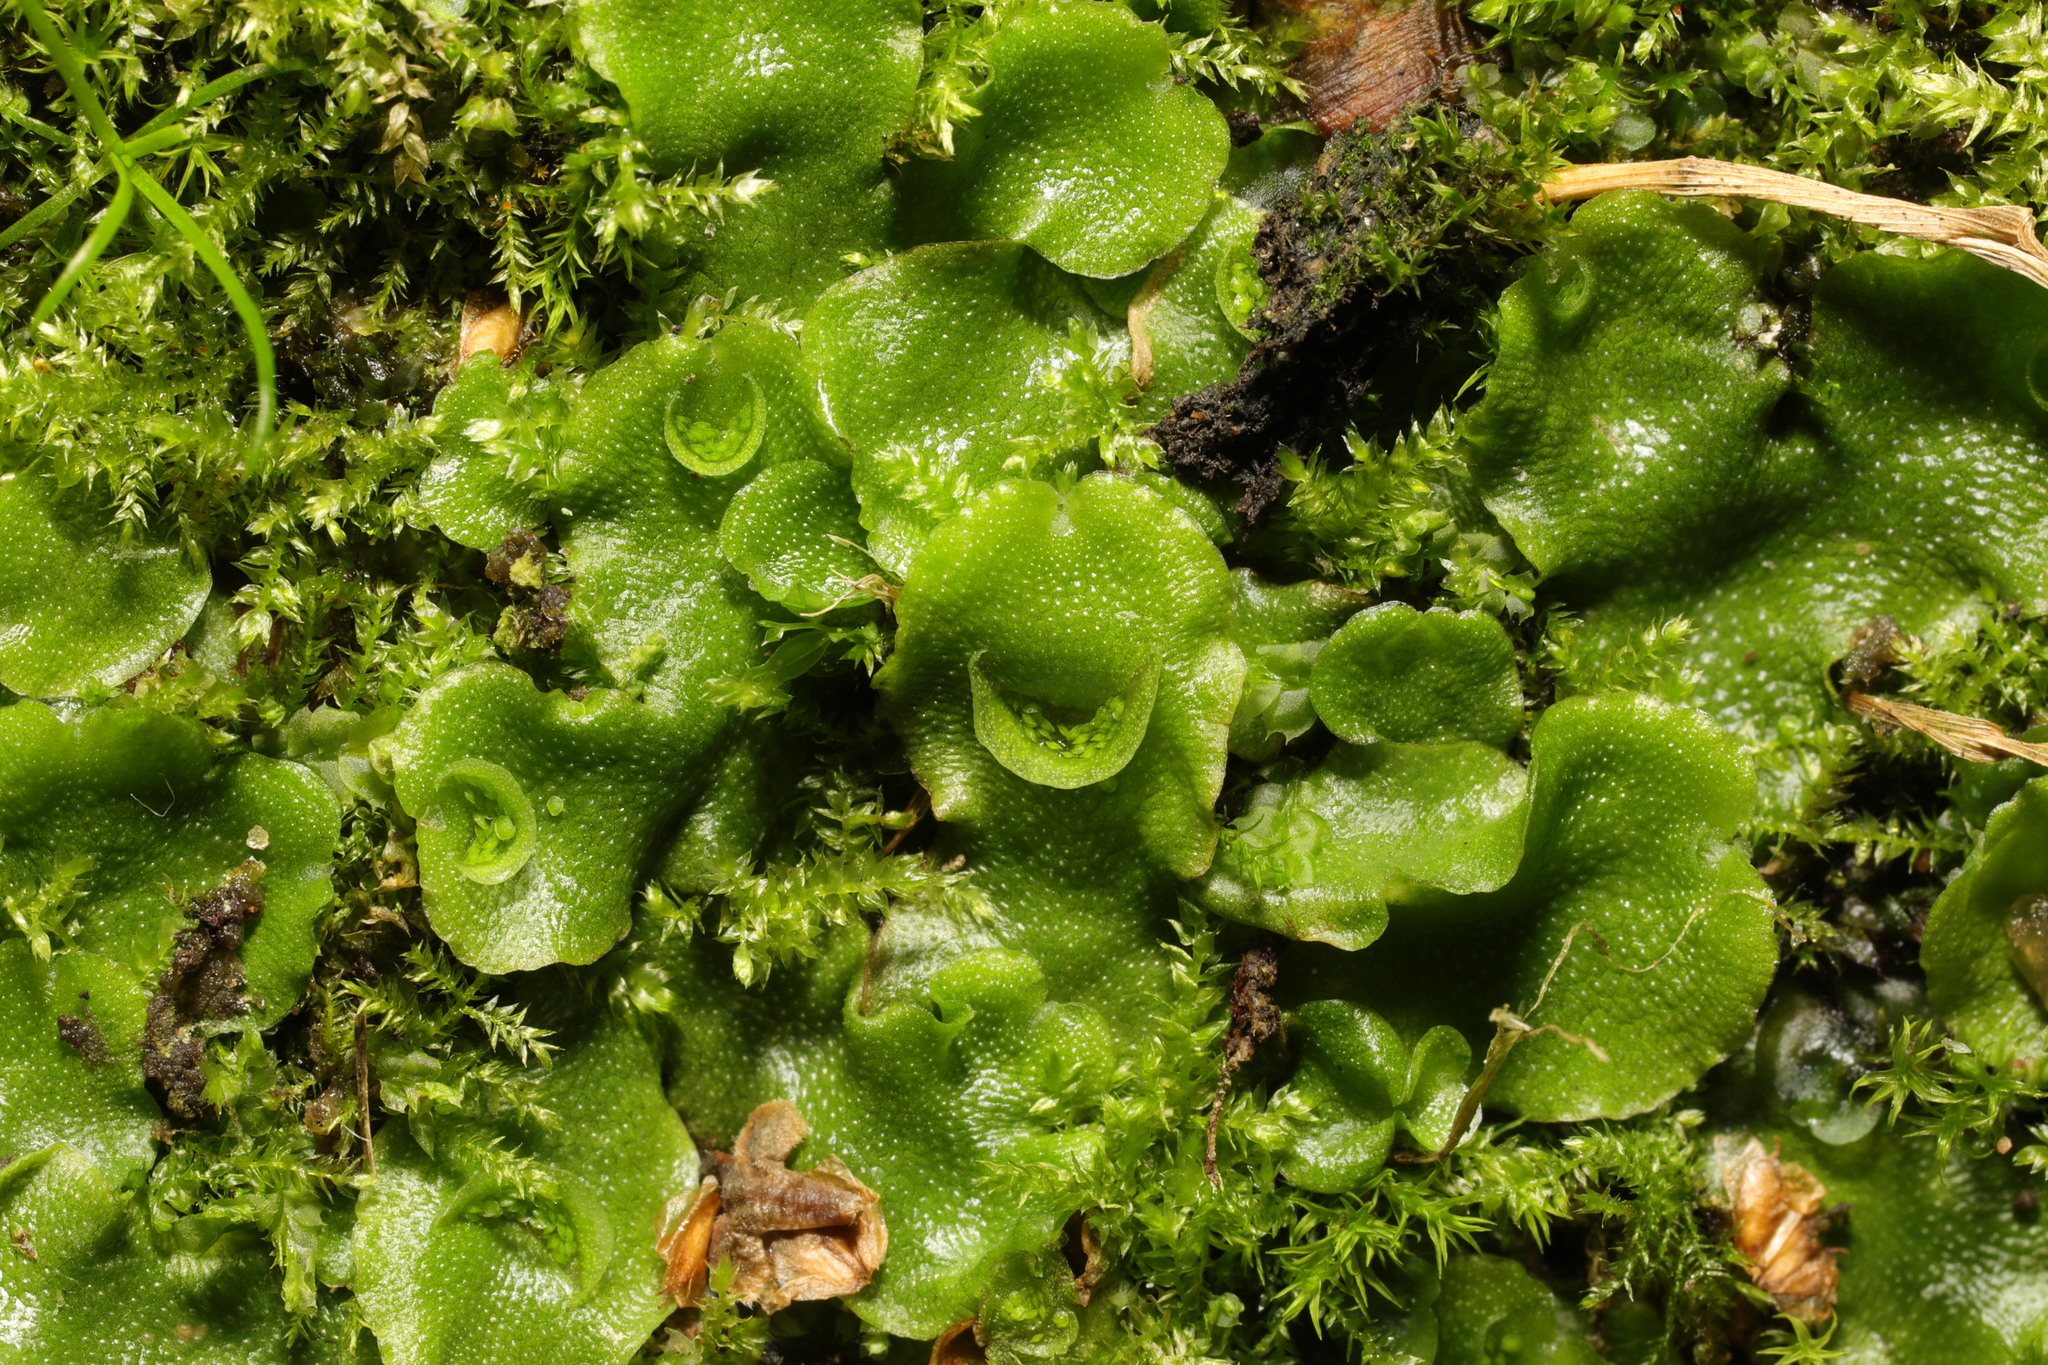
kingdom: Plantae
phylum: Marchantiophyta
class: Marchantiopsida
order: Lunulariales
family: Lunulariaceae
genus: Lunularia
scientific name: Lunularia cruciata
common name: Crescent-cup liverwort
